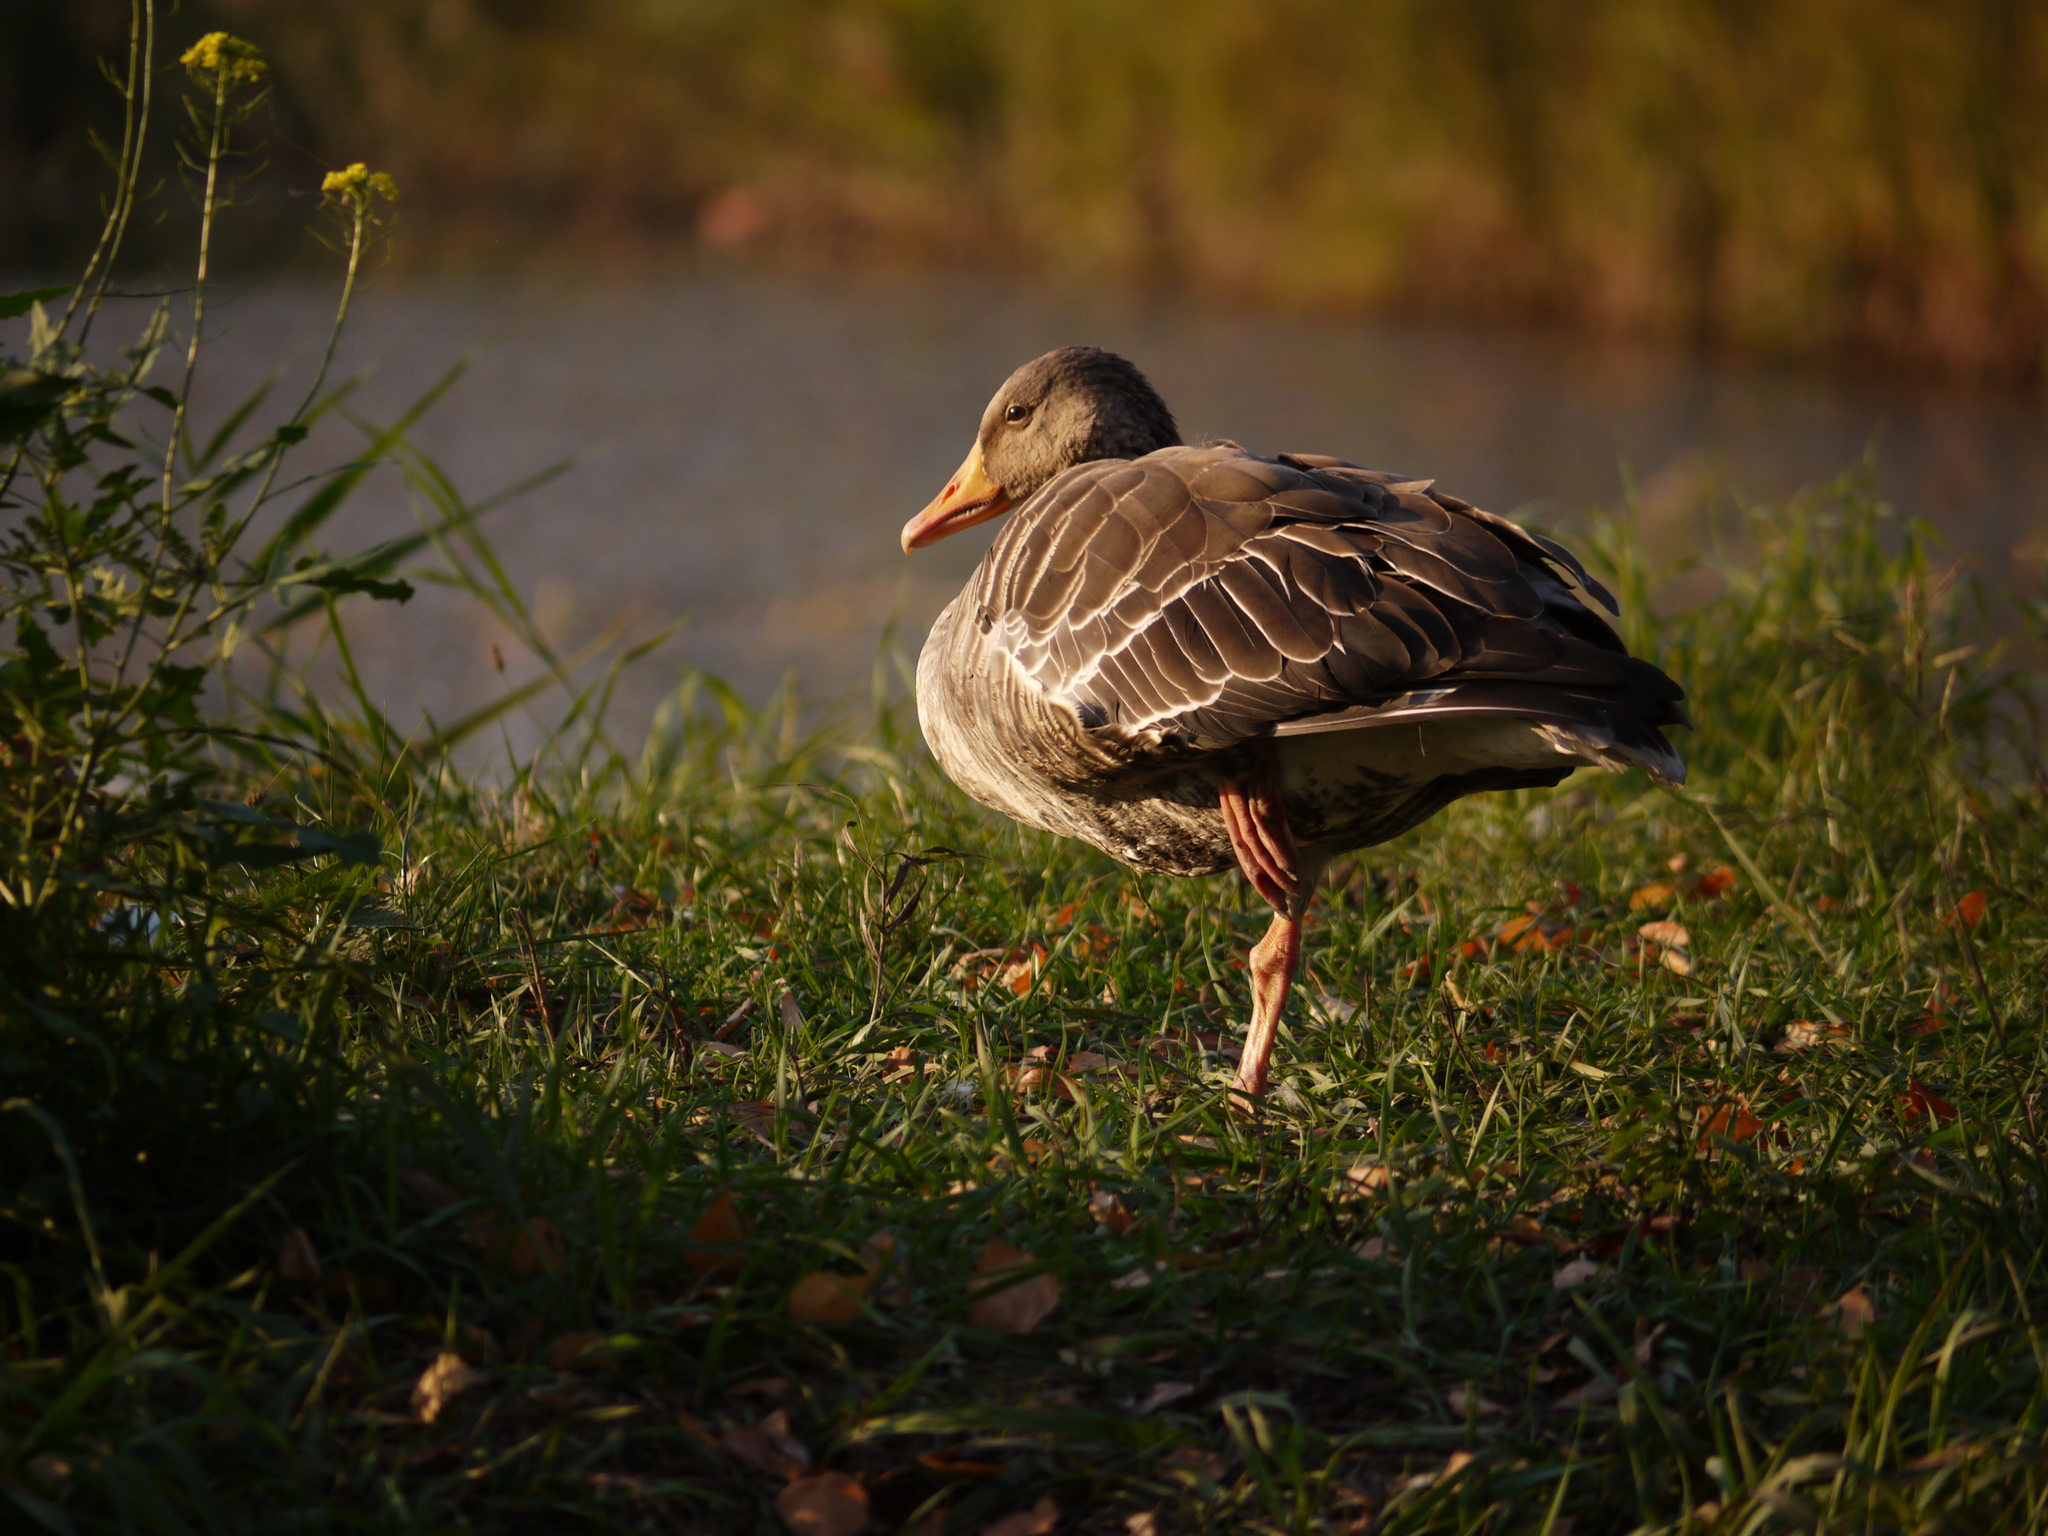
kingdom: Animalia
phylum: Chordata
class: Aves
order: Anseriformes
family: Anatidae
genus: Anser
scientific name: Anser anser
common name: Greylag goose
